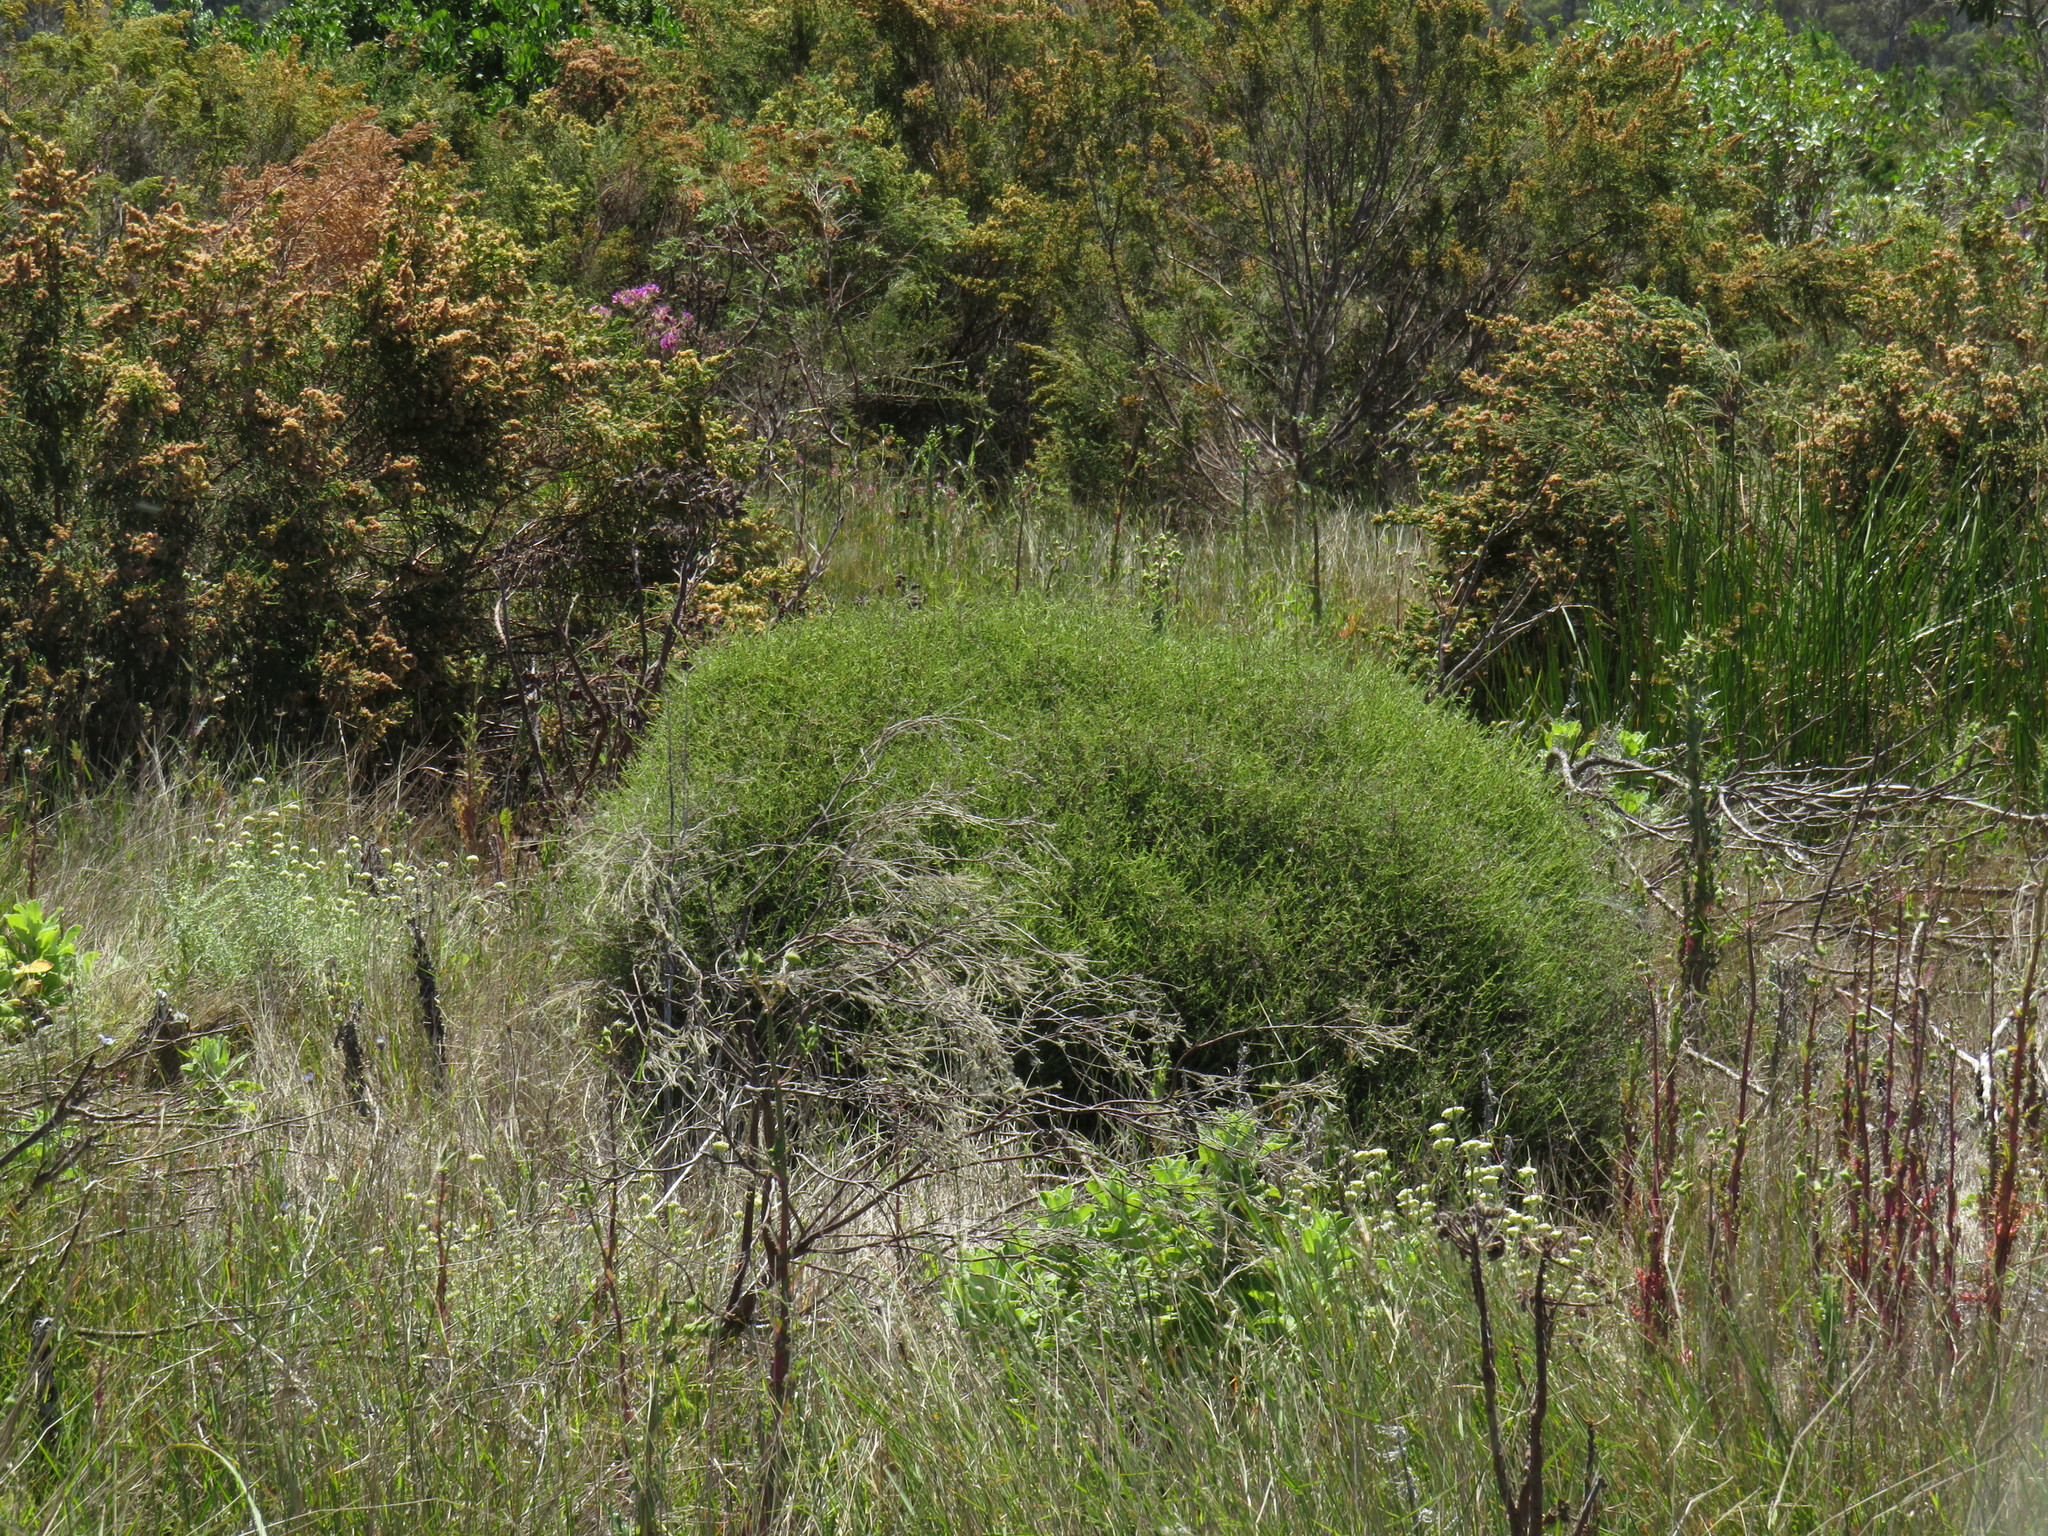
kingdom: Plantae
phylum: Tracheophyta
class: Magnoliopsida
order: Asterales
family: Asteraceae
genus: Myrovernix
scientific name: Myrovernix scaber
